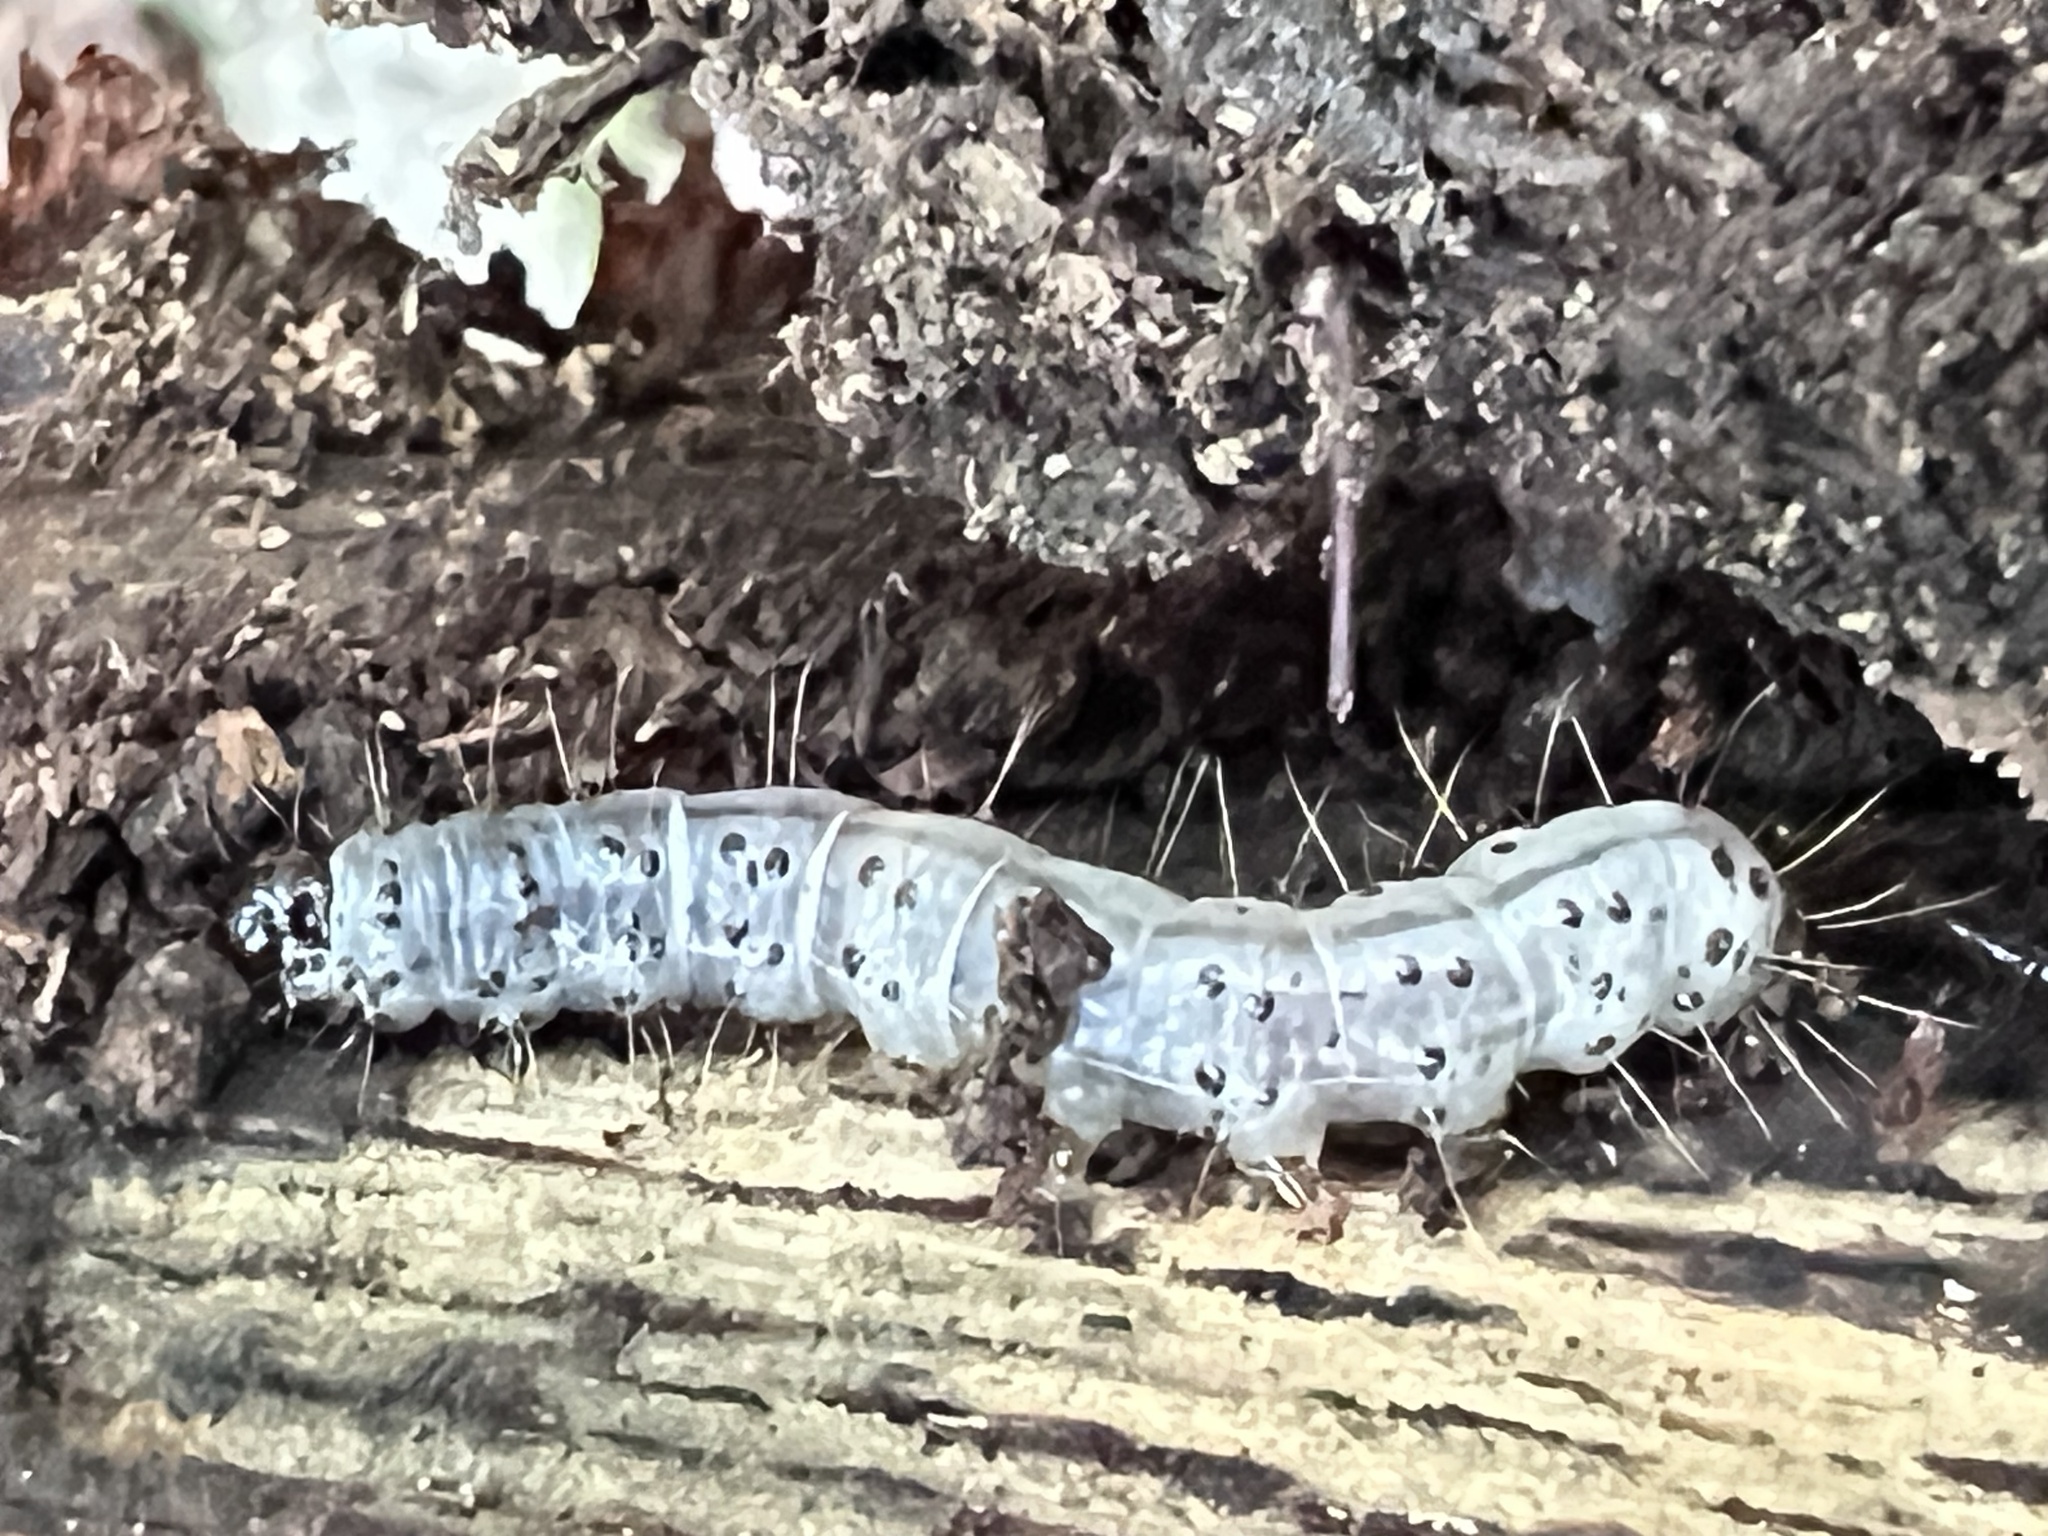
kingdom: Animalia
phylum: Arthropoda
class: Insecta
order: Lepidoptera
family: Erebidae
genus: Scolecocampa
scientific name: Scolecocampa liburna
